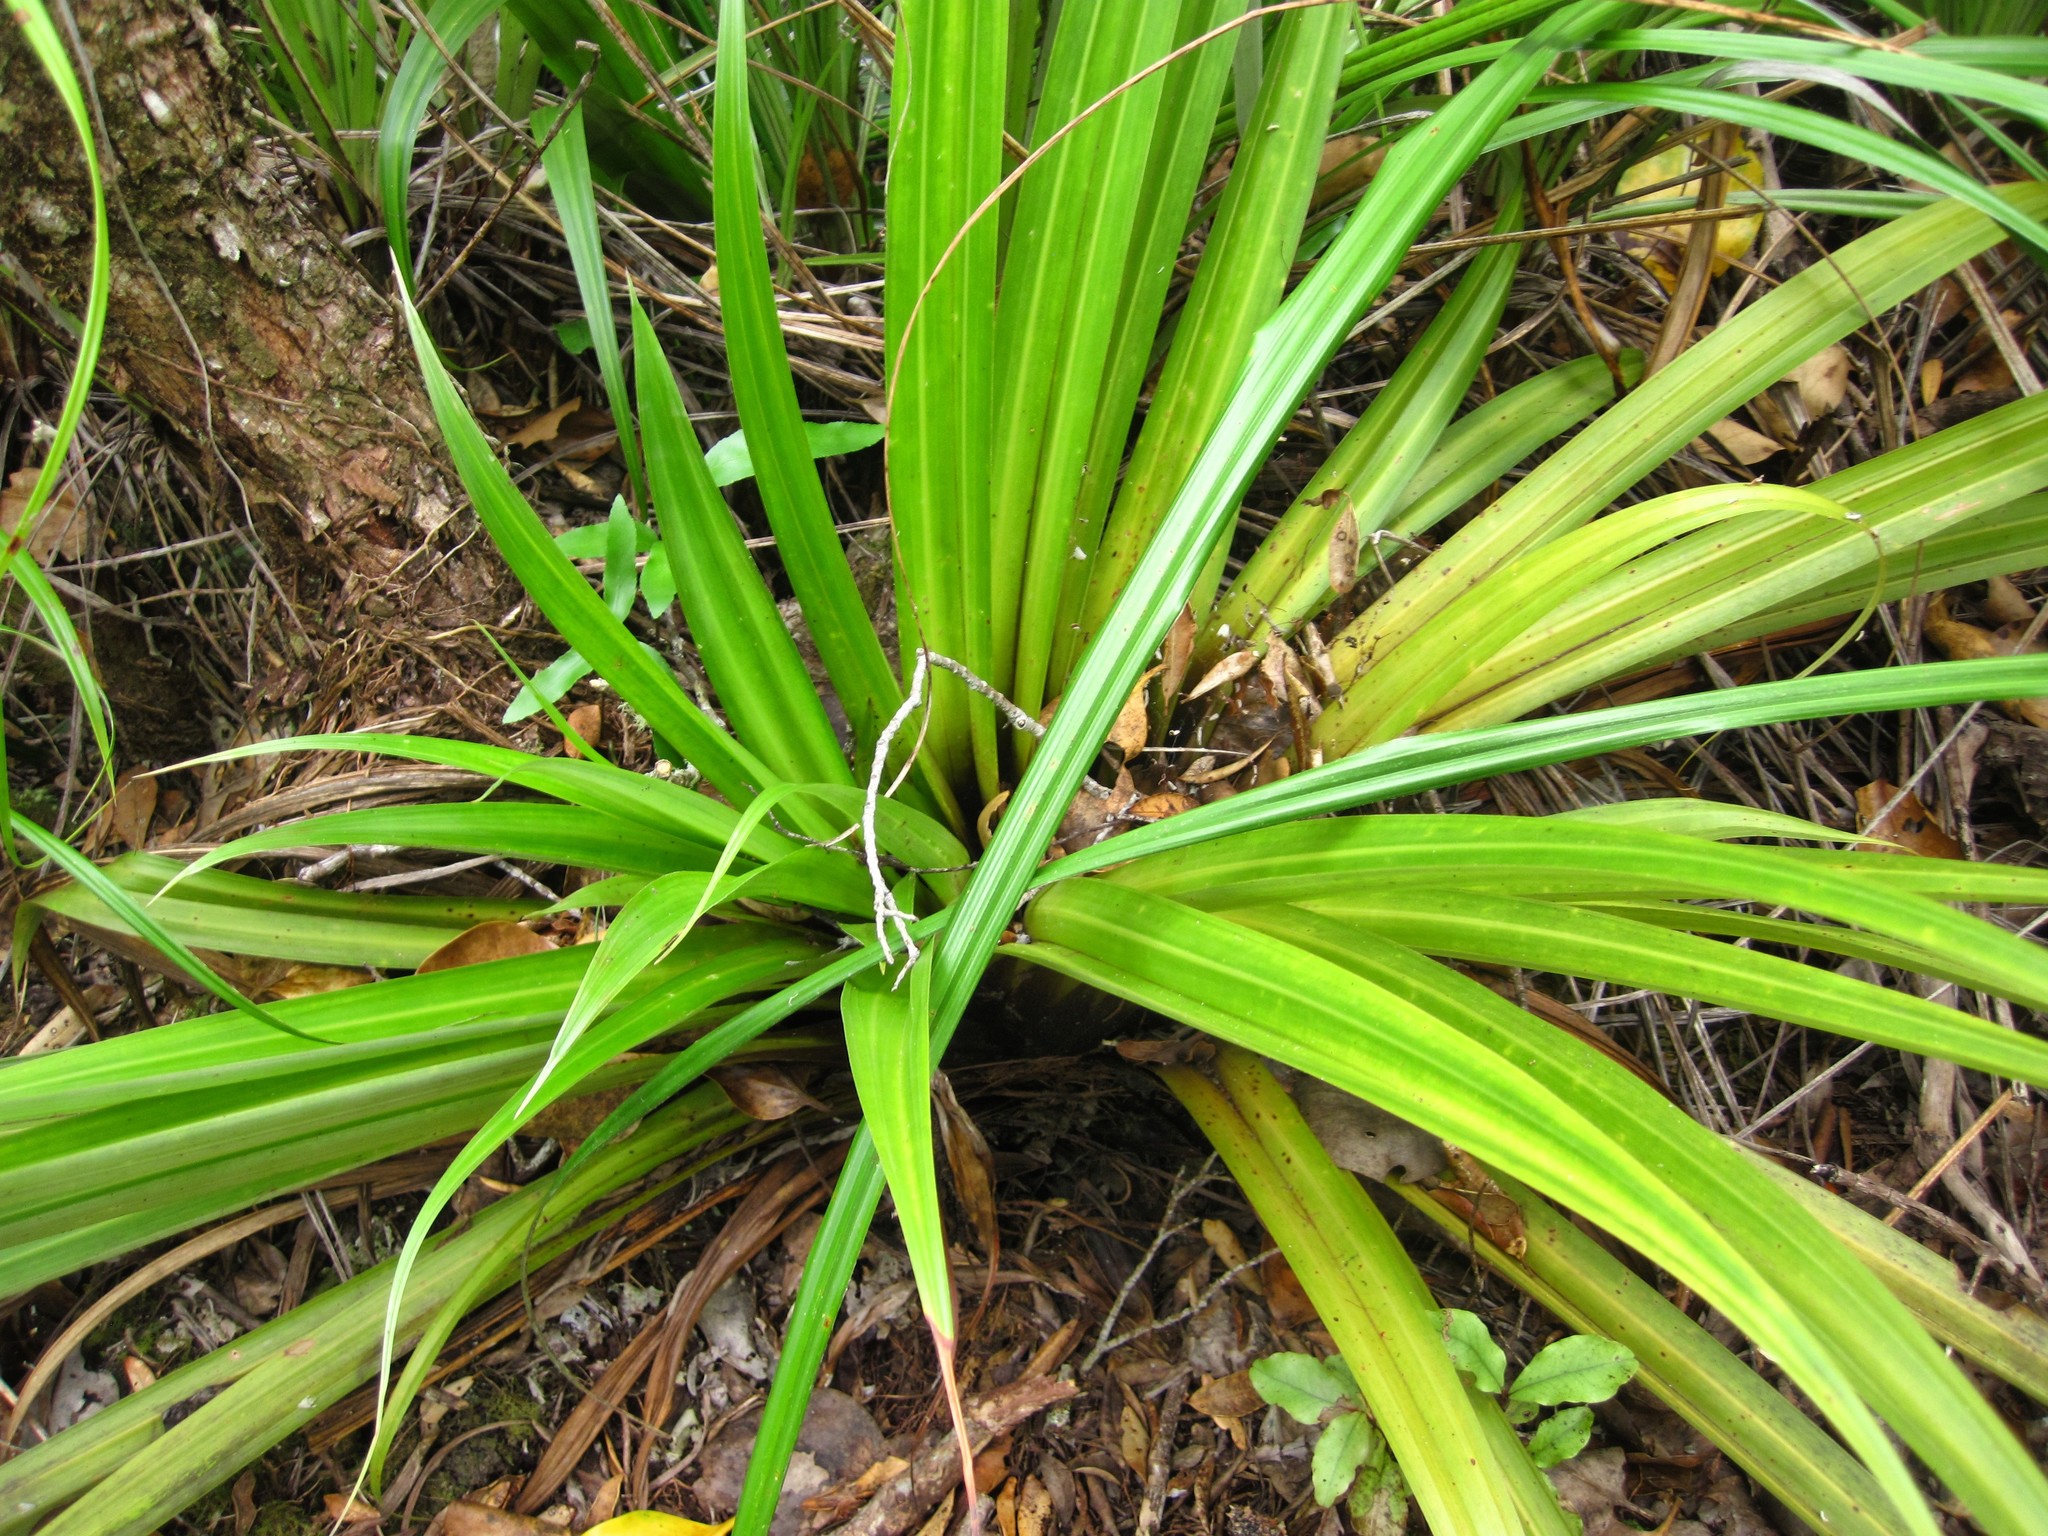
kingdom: Plantae
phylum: Tracheophyta
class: Liliopsida
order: Asparagales
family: Asteliaceae
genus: Astelia
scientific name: Astelia hastata
